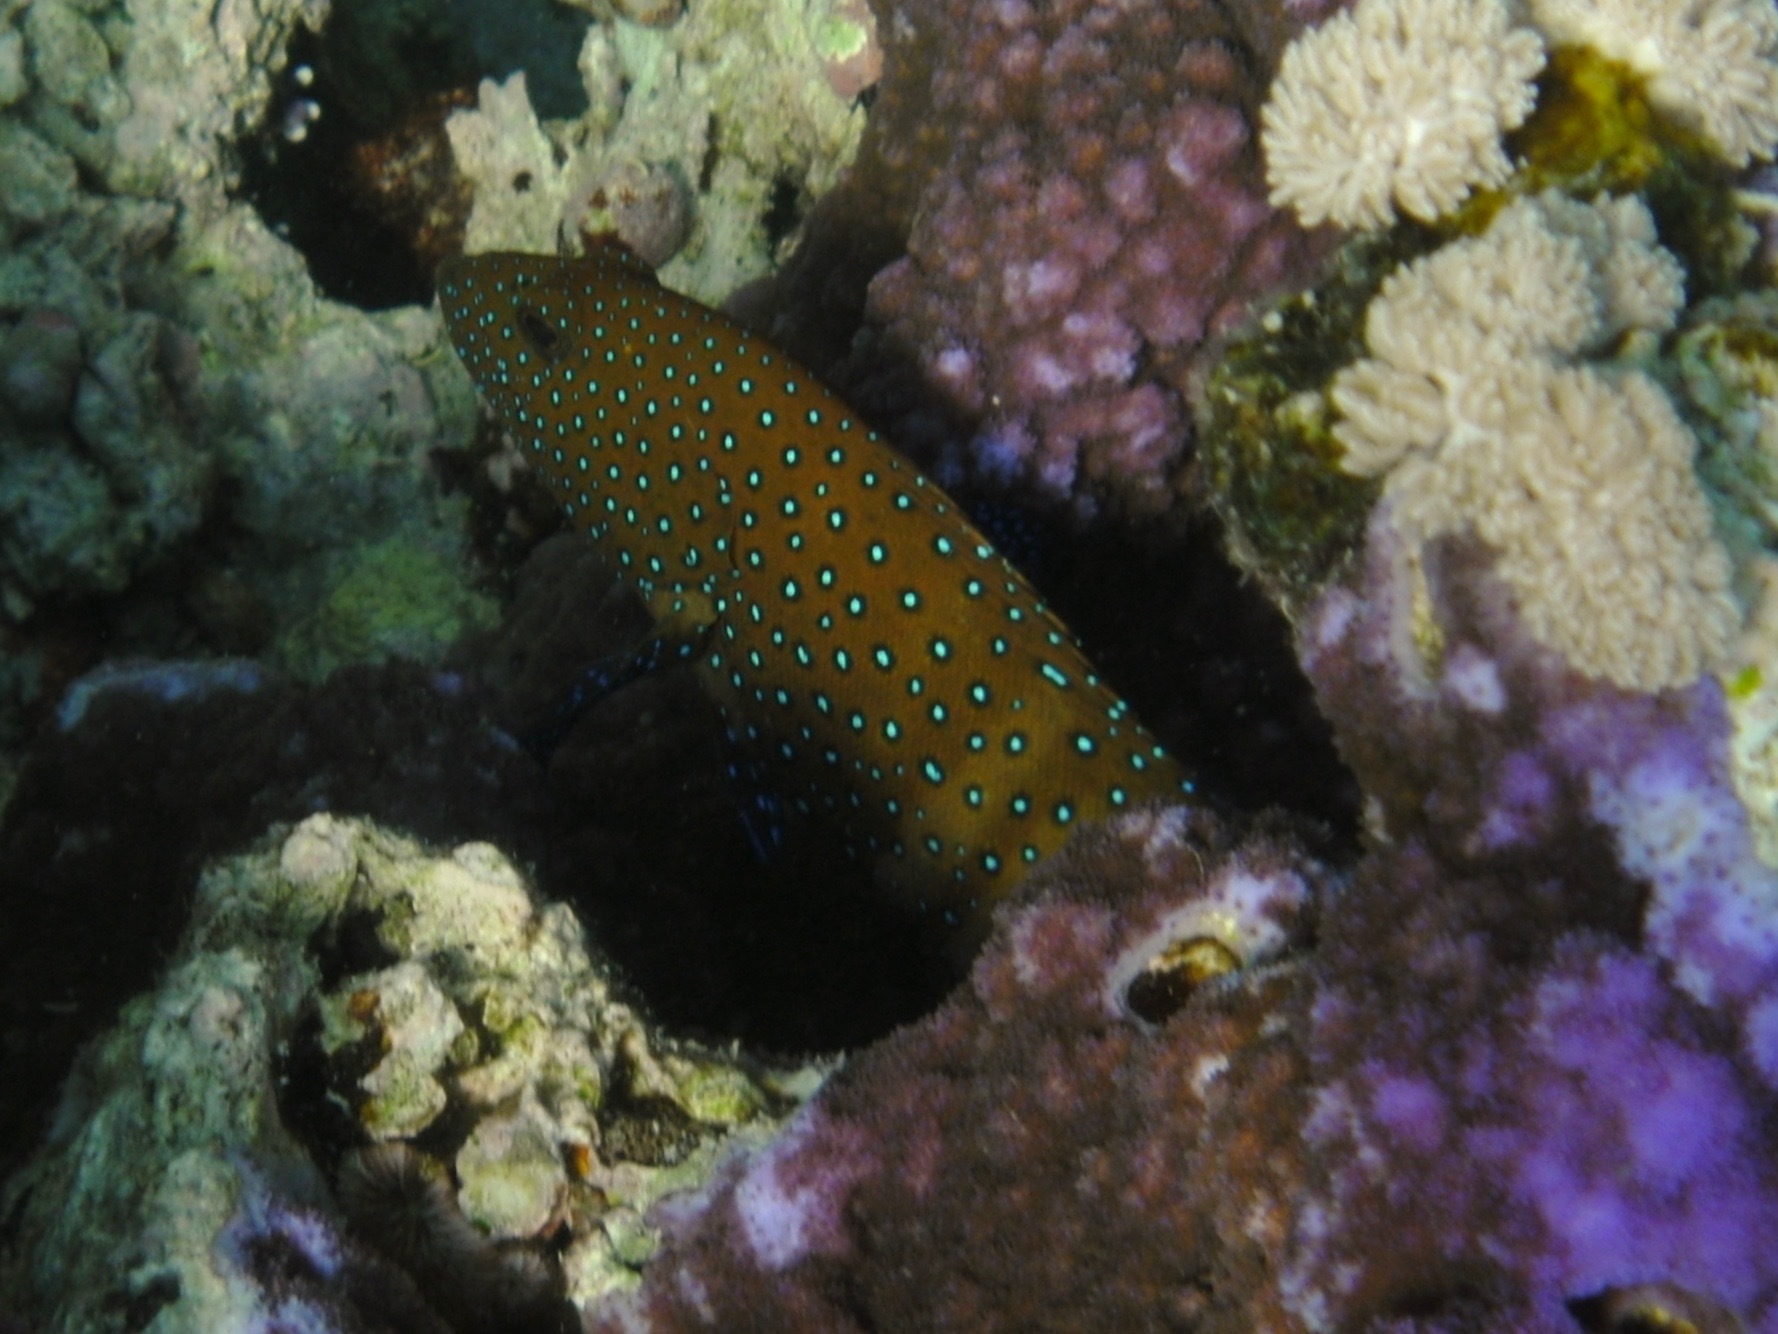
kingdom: Animalia
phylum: Chordata
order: Perciformes
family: Serranidae
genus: Cephalopholis
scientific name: Cephalopholis argus
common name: Peacock grouper
